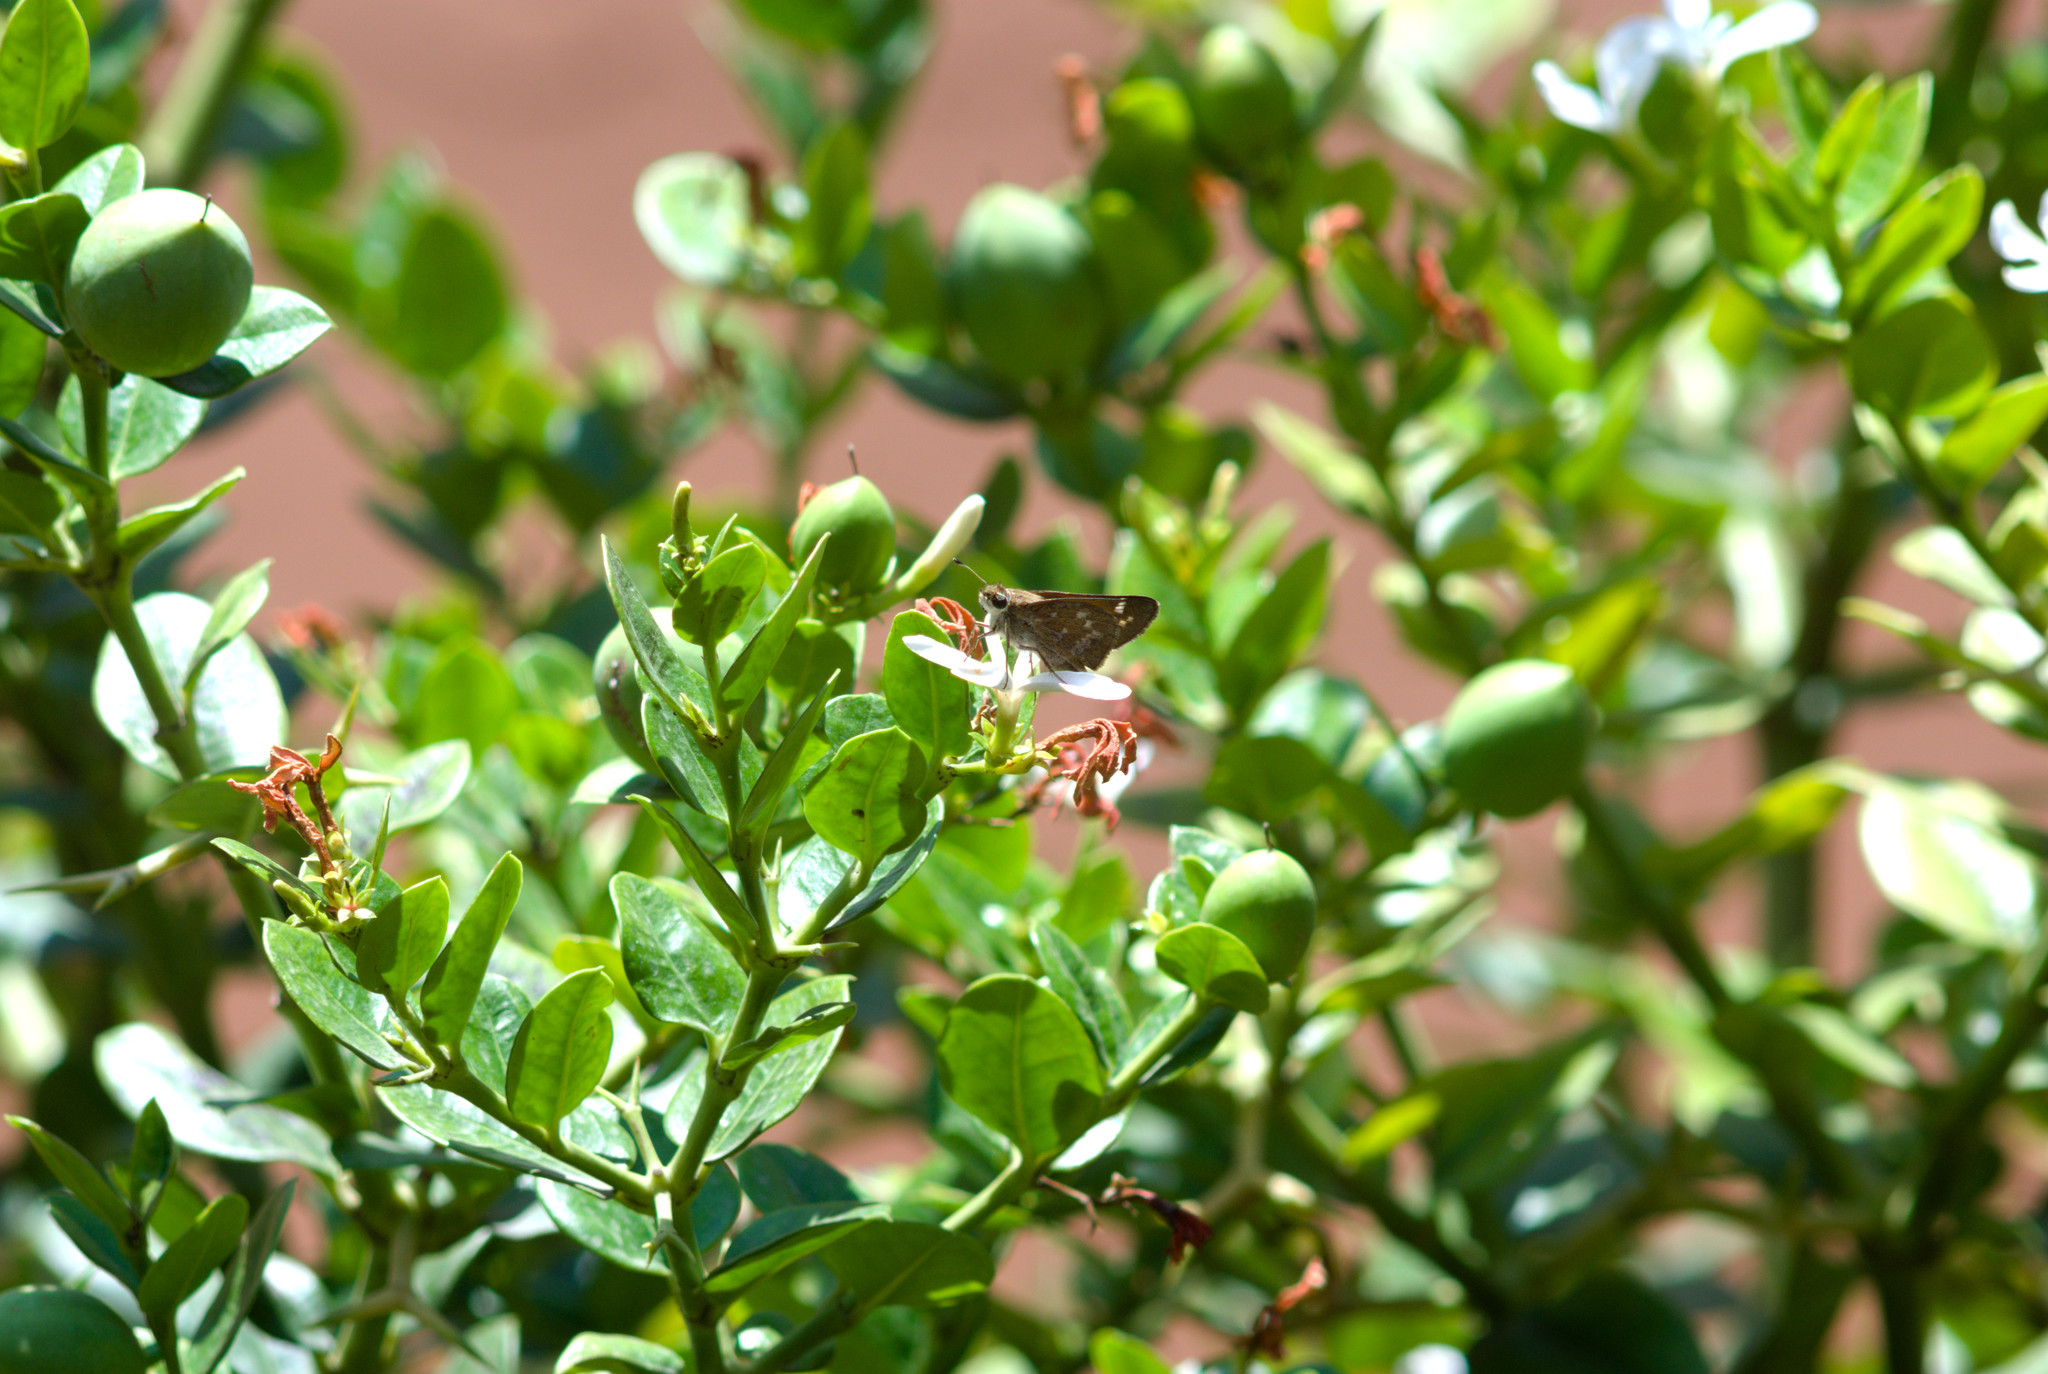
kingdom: Animalia
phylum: Arthropoda
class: Insecta
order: Lepidoptera
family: Hesperiidae
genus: Atalopedes
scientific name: Atalopedes
